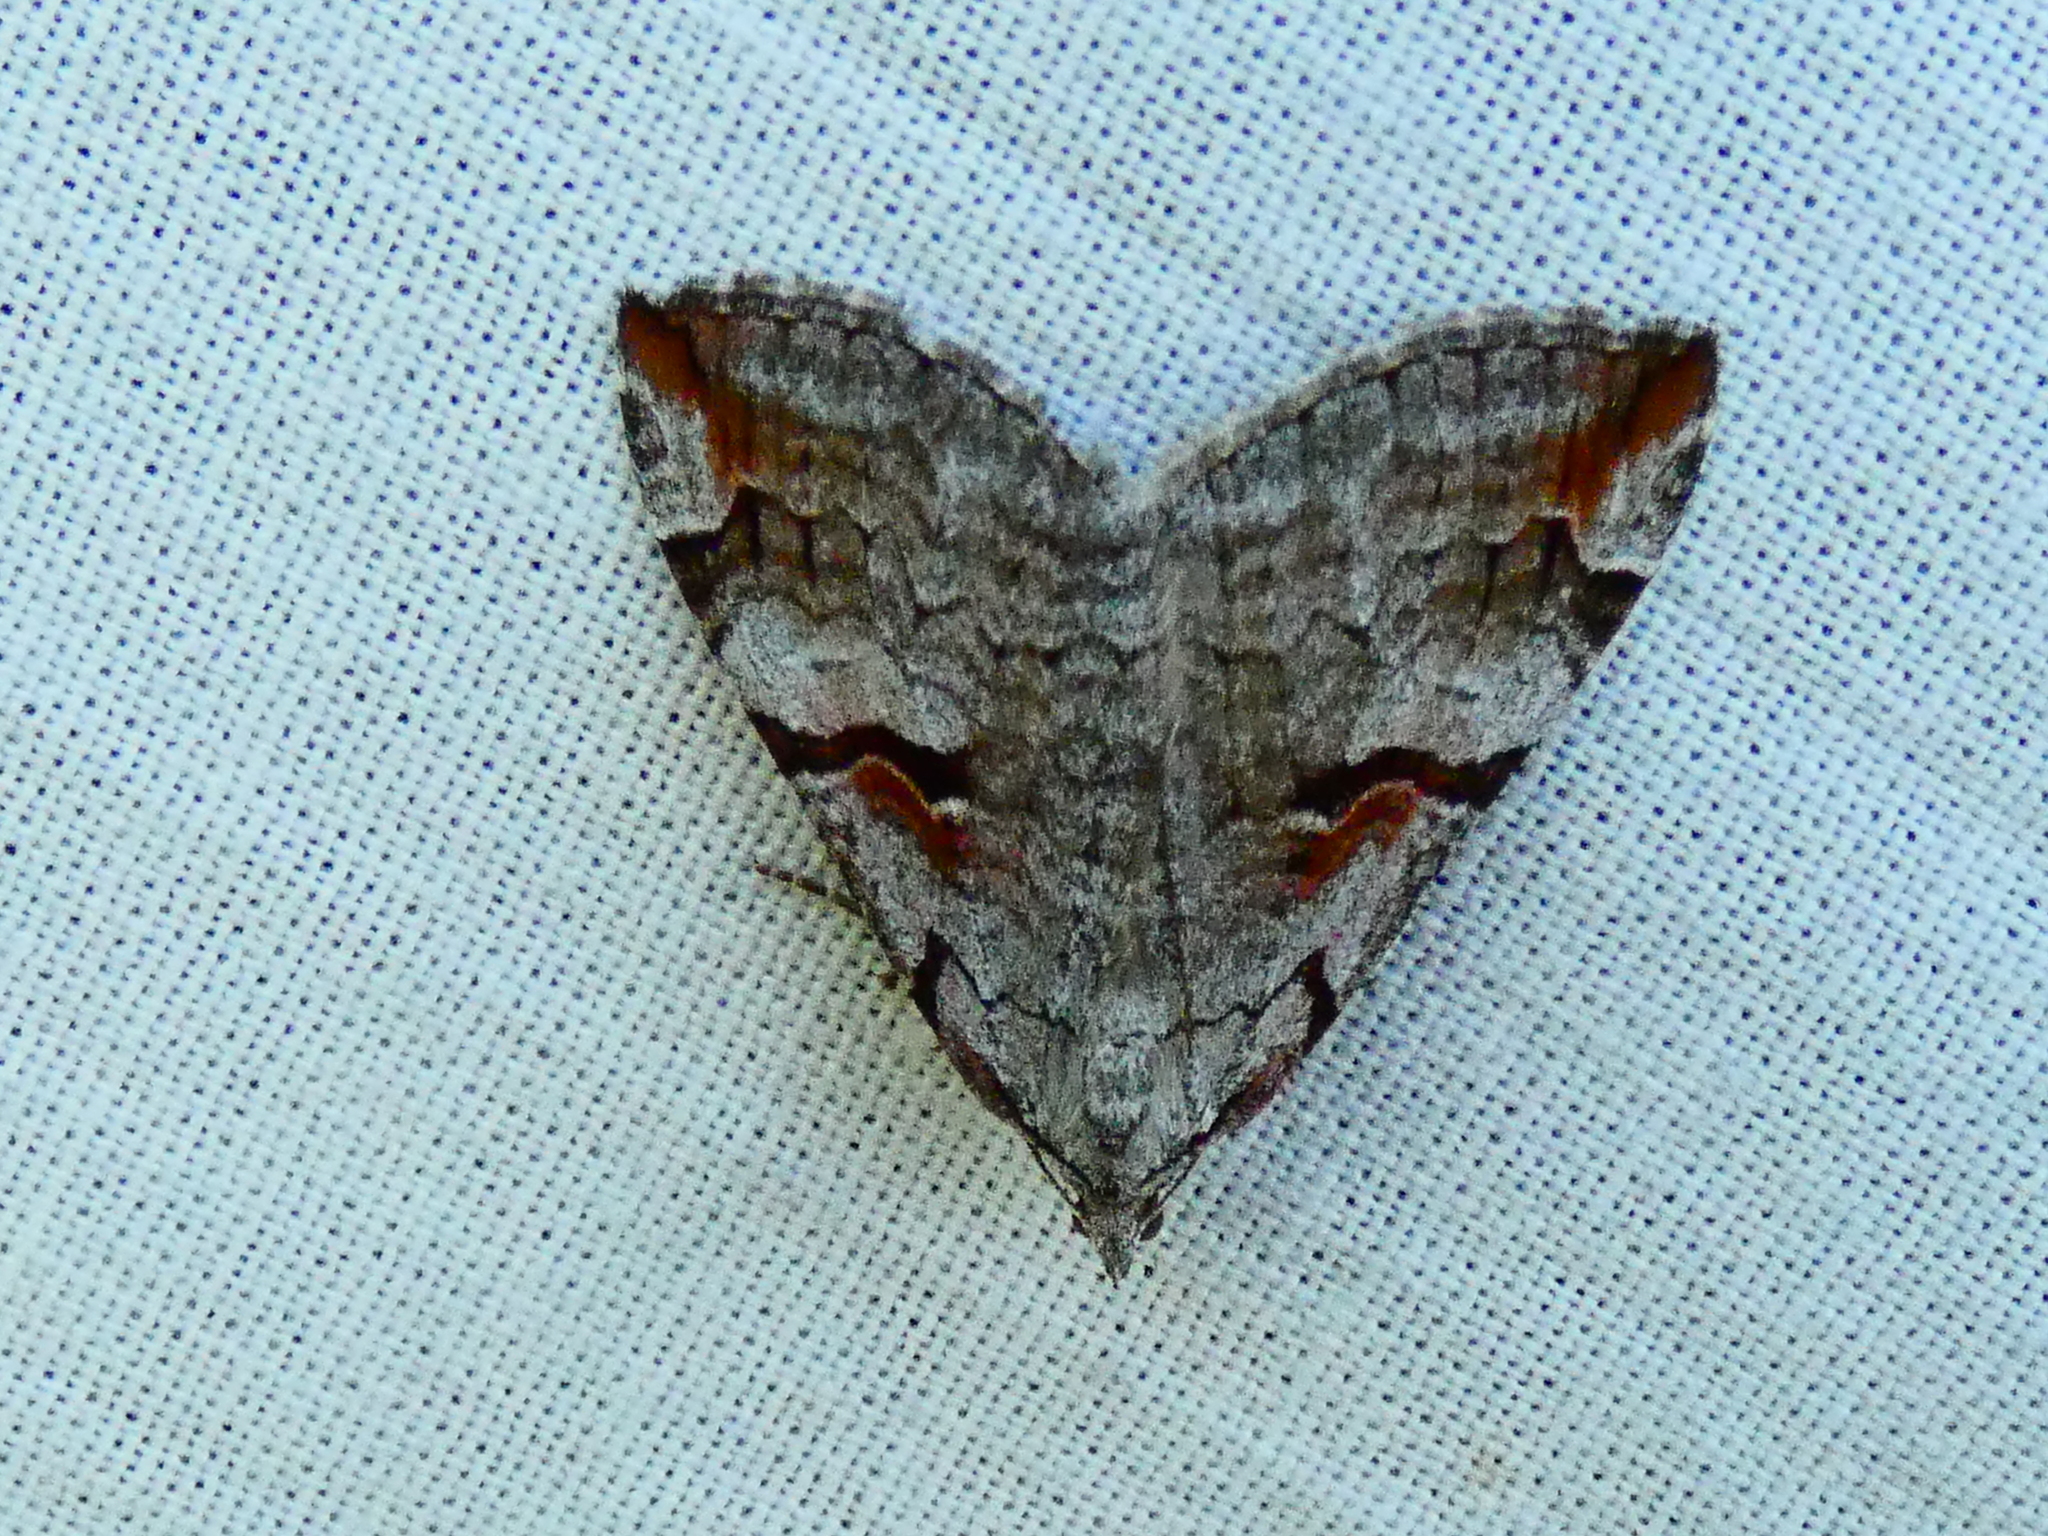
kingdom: Animalia
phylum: Arthropoda
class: Insecta
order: Lepidoptera
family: Geometridae
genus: Aplocera
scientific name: Aplocera praeformata
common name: Purple treble-bar
